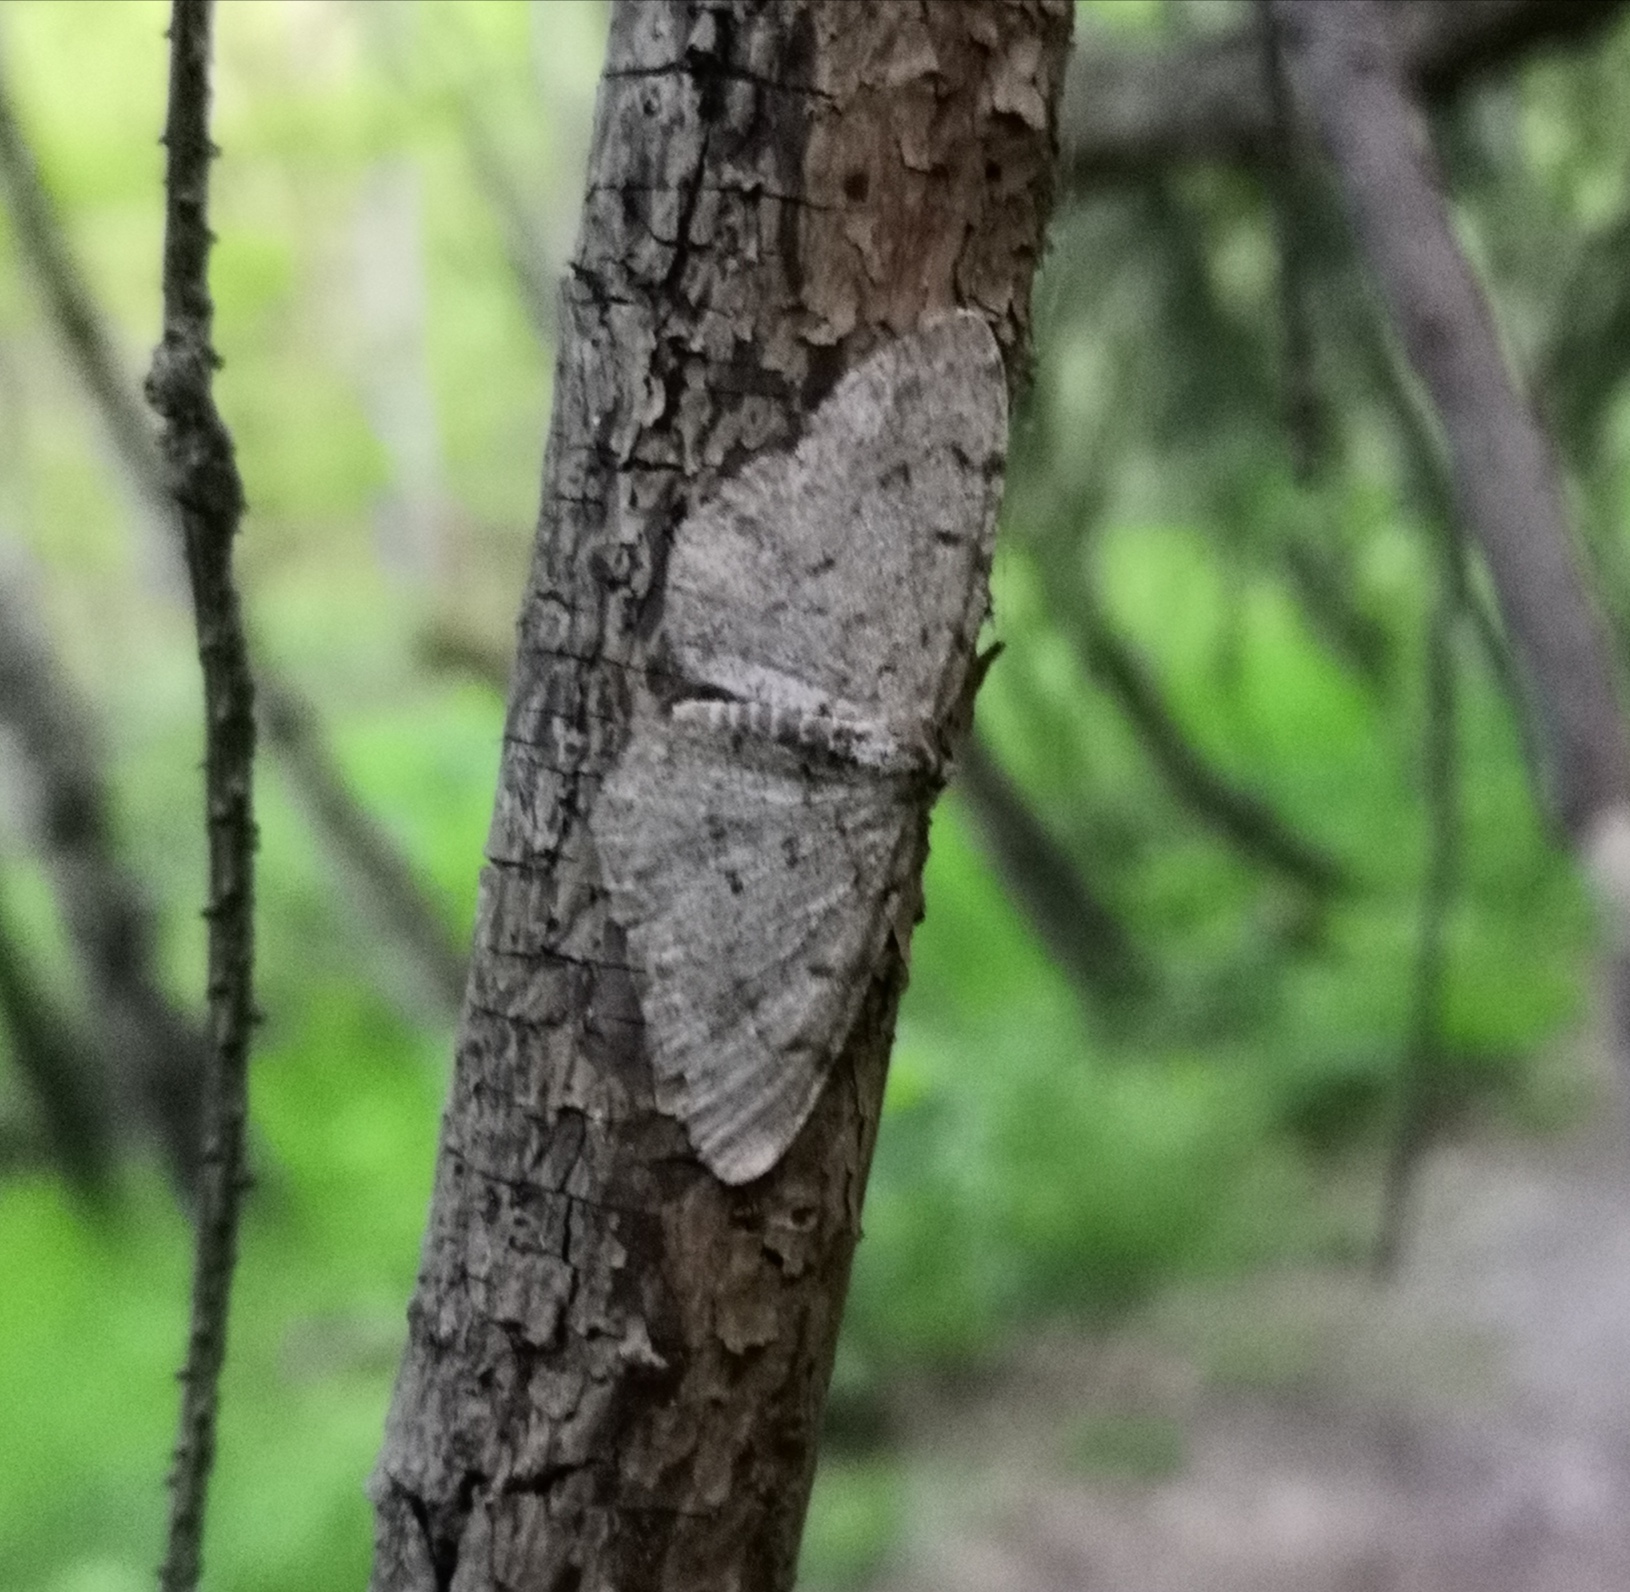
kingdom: Animalia
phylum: Arthropoda
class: Insecta
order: Lepidoptera
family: Geometridae
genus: Aethalura
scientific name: Aethalura punctulata
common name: Grey birch
